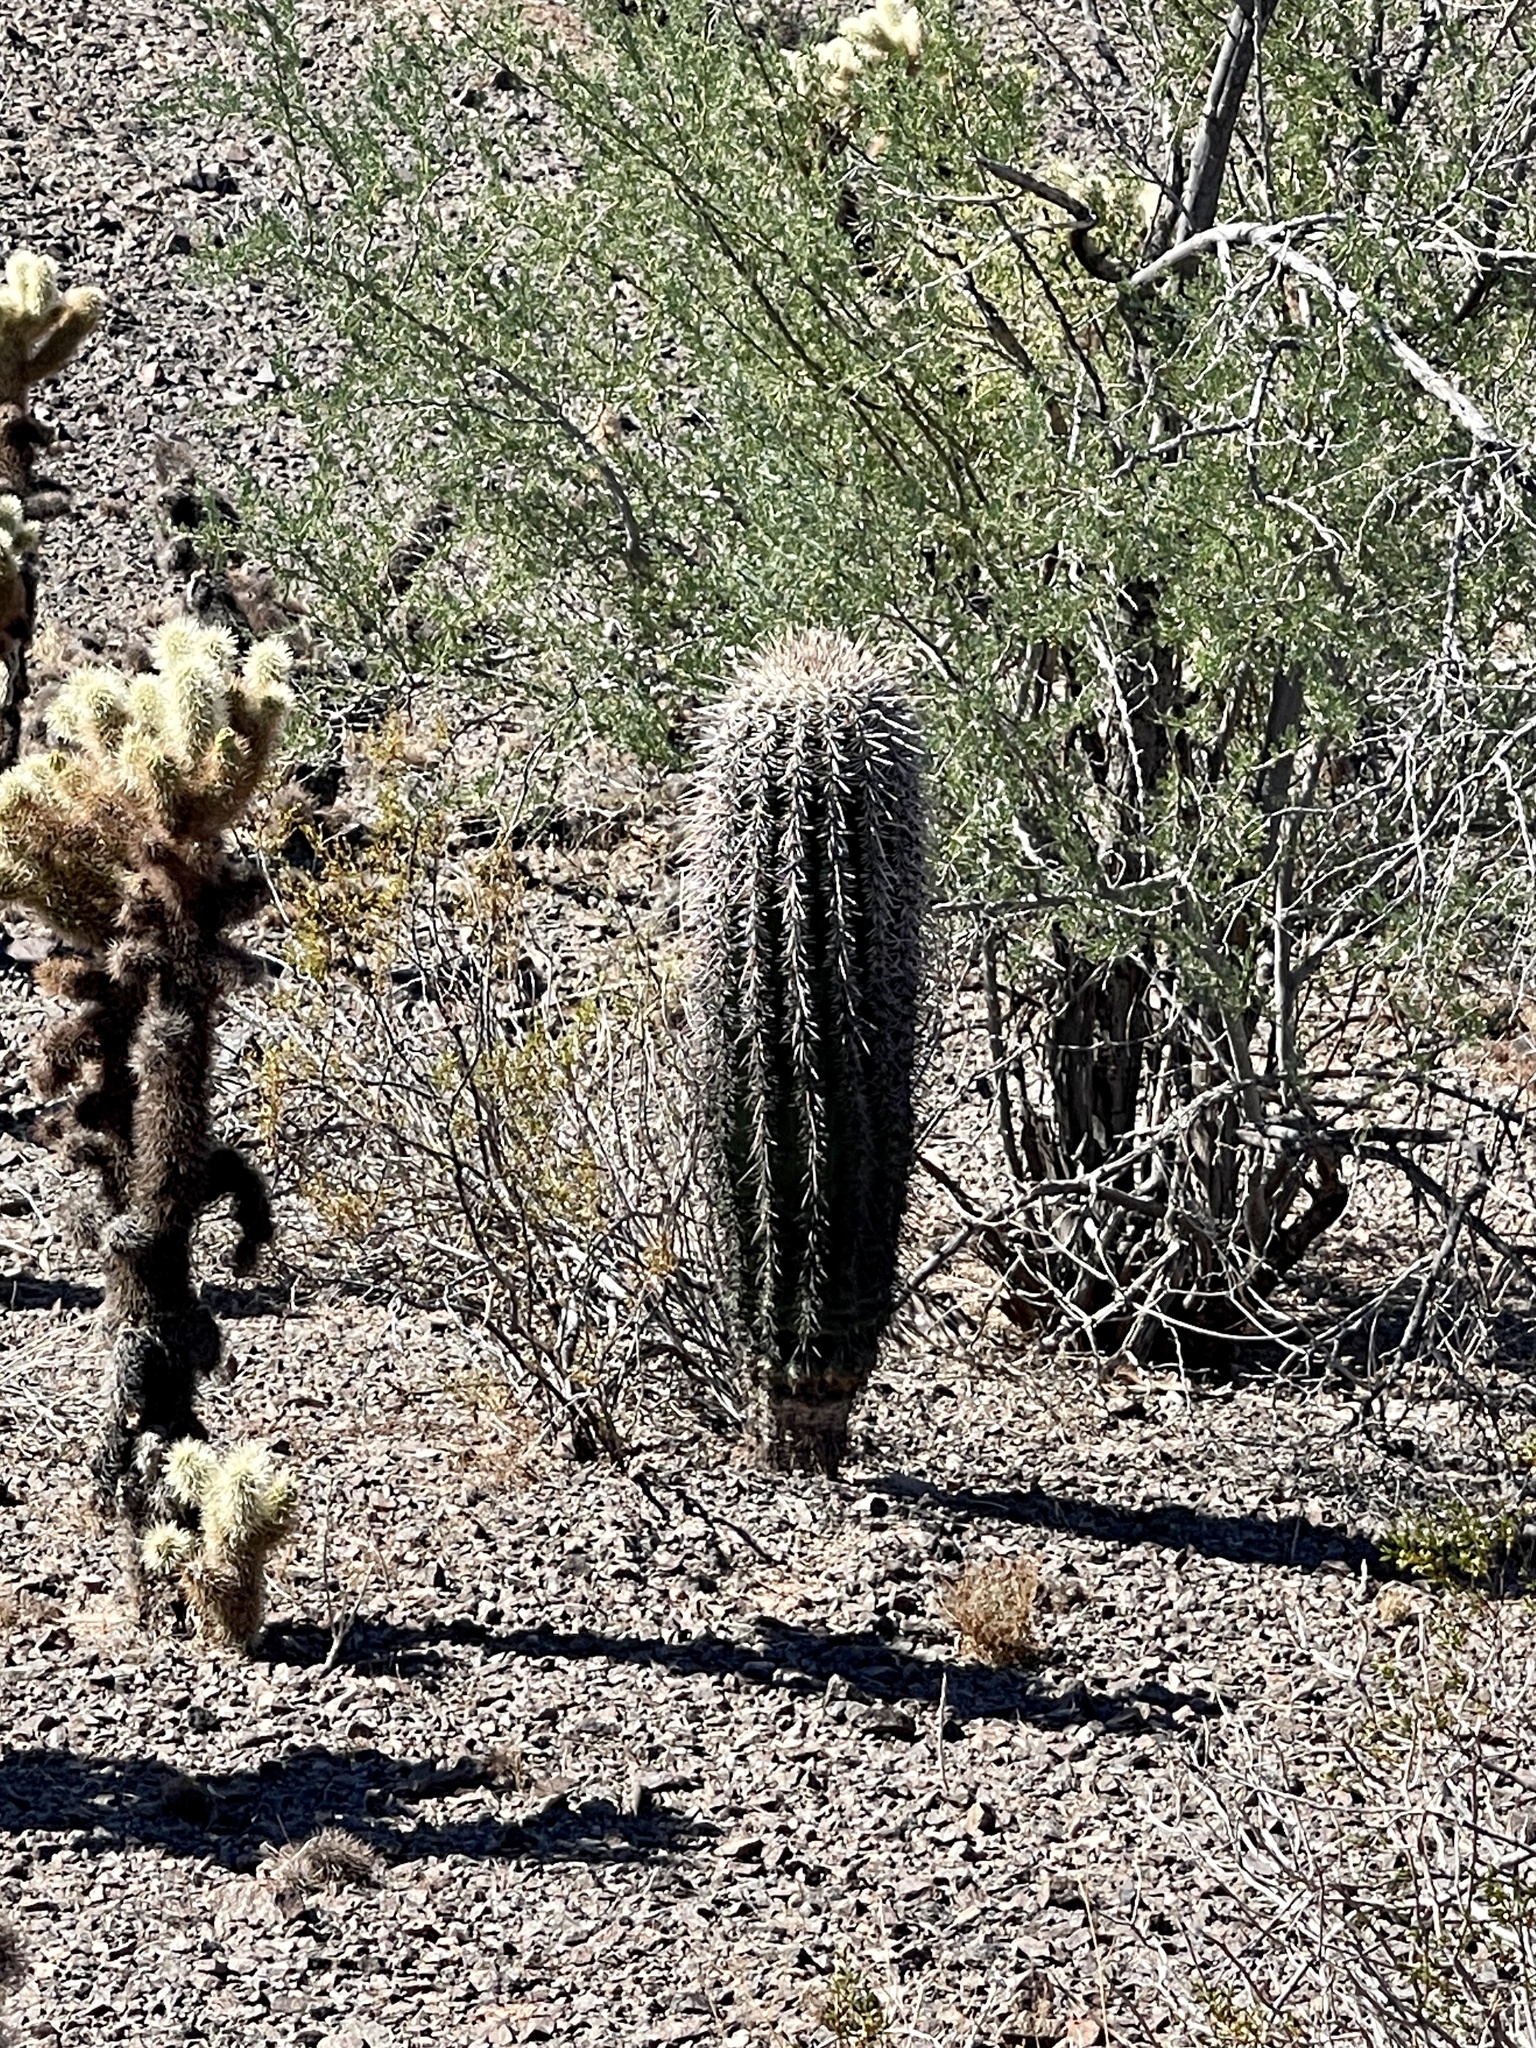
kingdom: Plantae
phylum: Tracheophyta
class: Magnoliopsida
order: Caryophyllales
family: Cactaceae
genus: Carnegiea
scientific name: Carnegiea gigantea
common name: Saguaro
